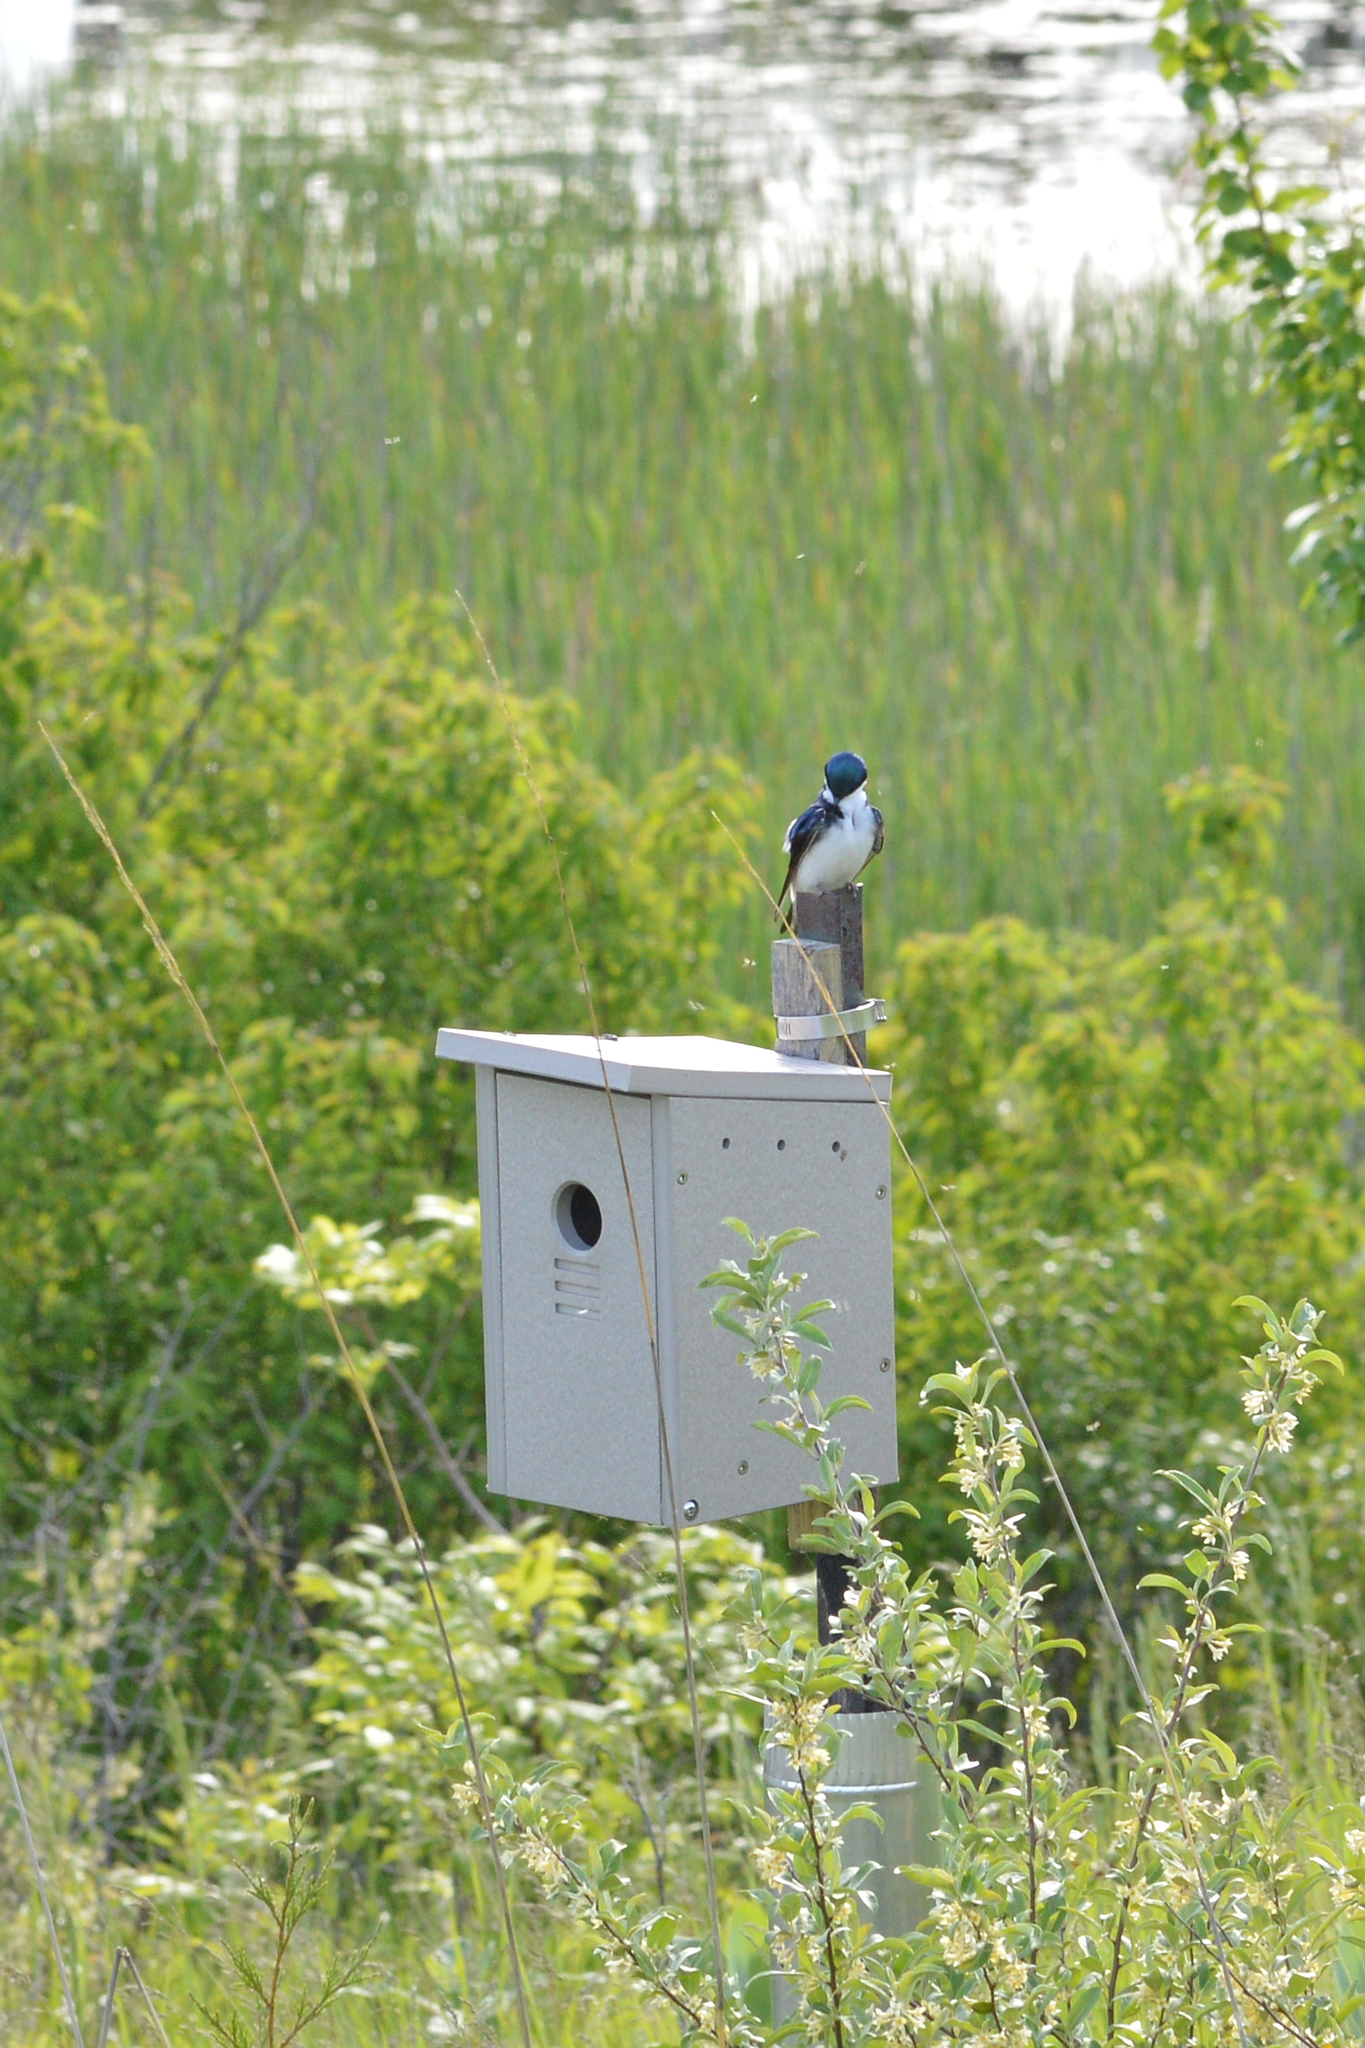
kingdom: Animalia
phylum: Chordata
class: Aves
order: Passeriformes
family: Hirundinidae
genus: Tachycineta
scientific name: Tachycineta bicolor
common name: Tree swallow
